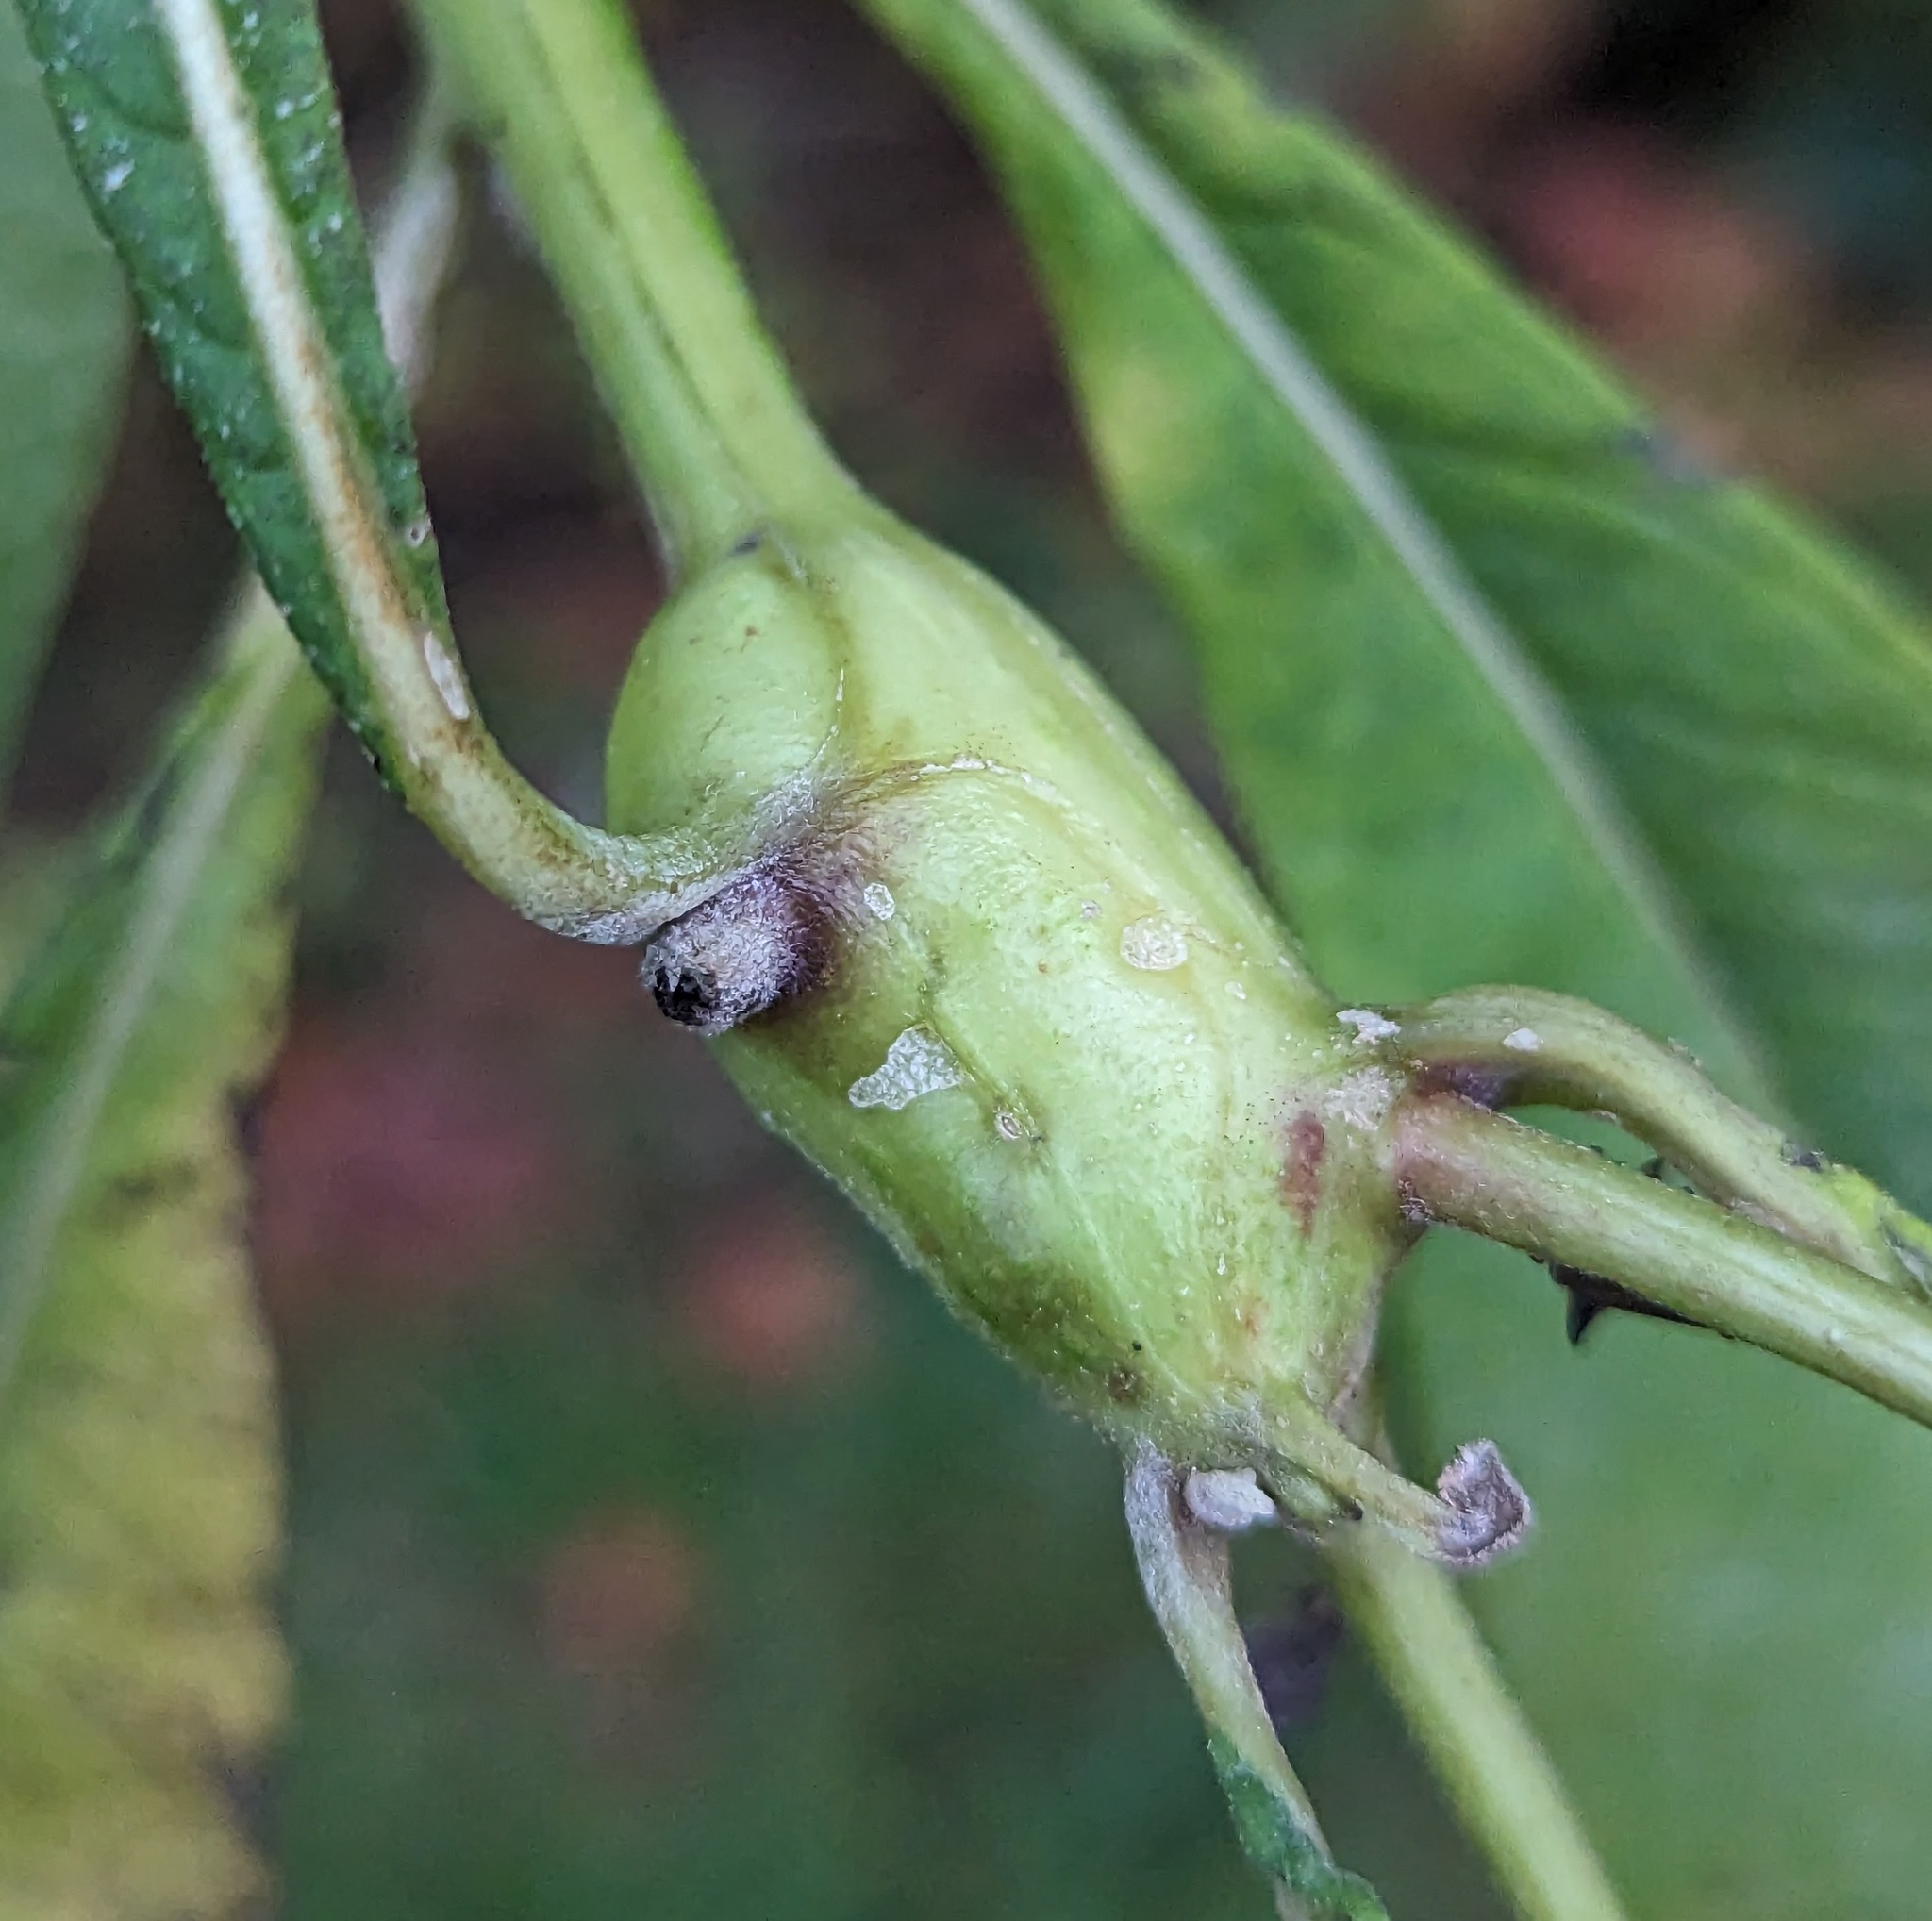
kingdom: Animalia
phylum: Arthropoda
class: Insecta
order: Diptera
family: Cecidomyiidae
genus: Neolasioptera
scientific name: Neolasioptera verbesinae
